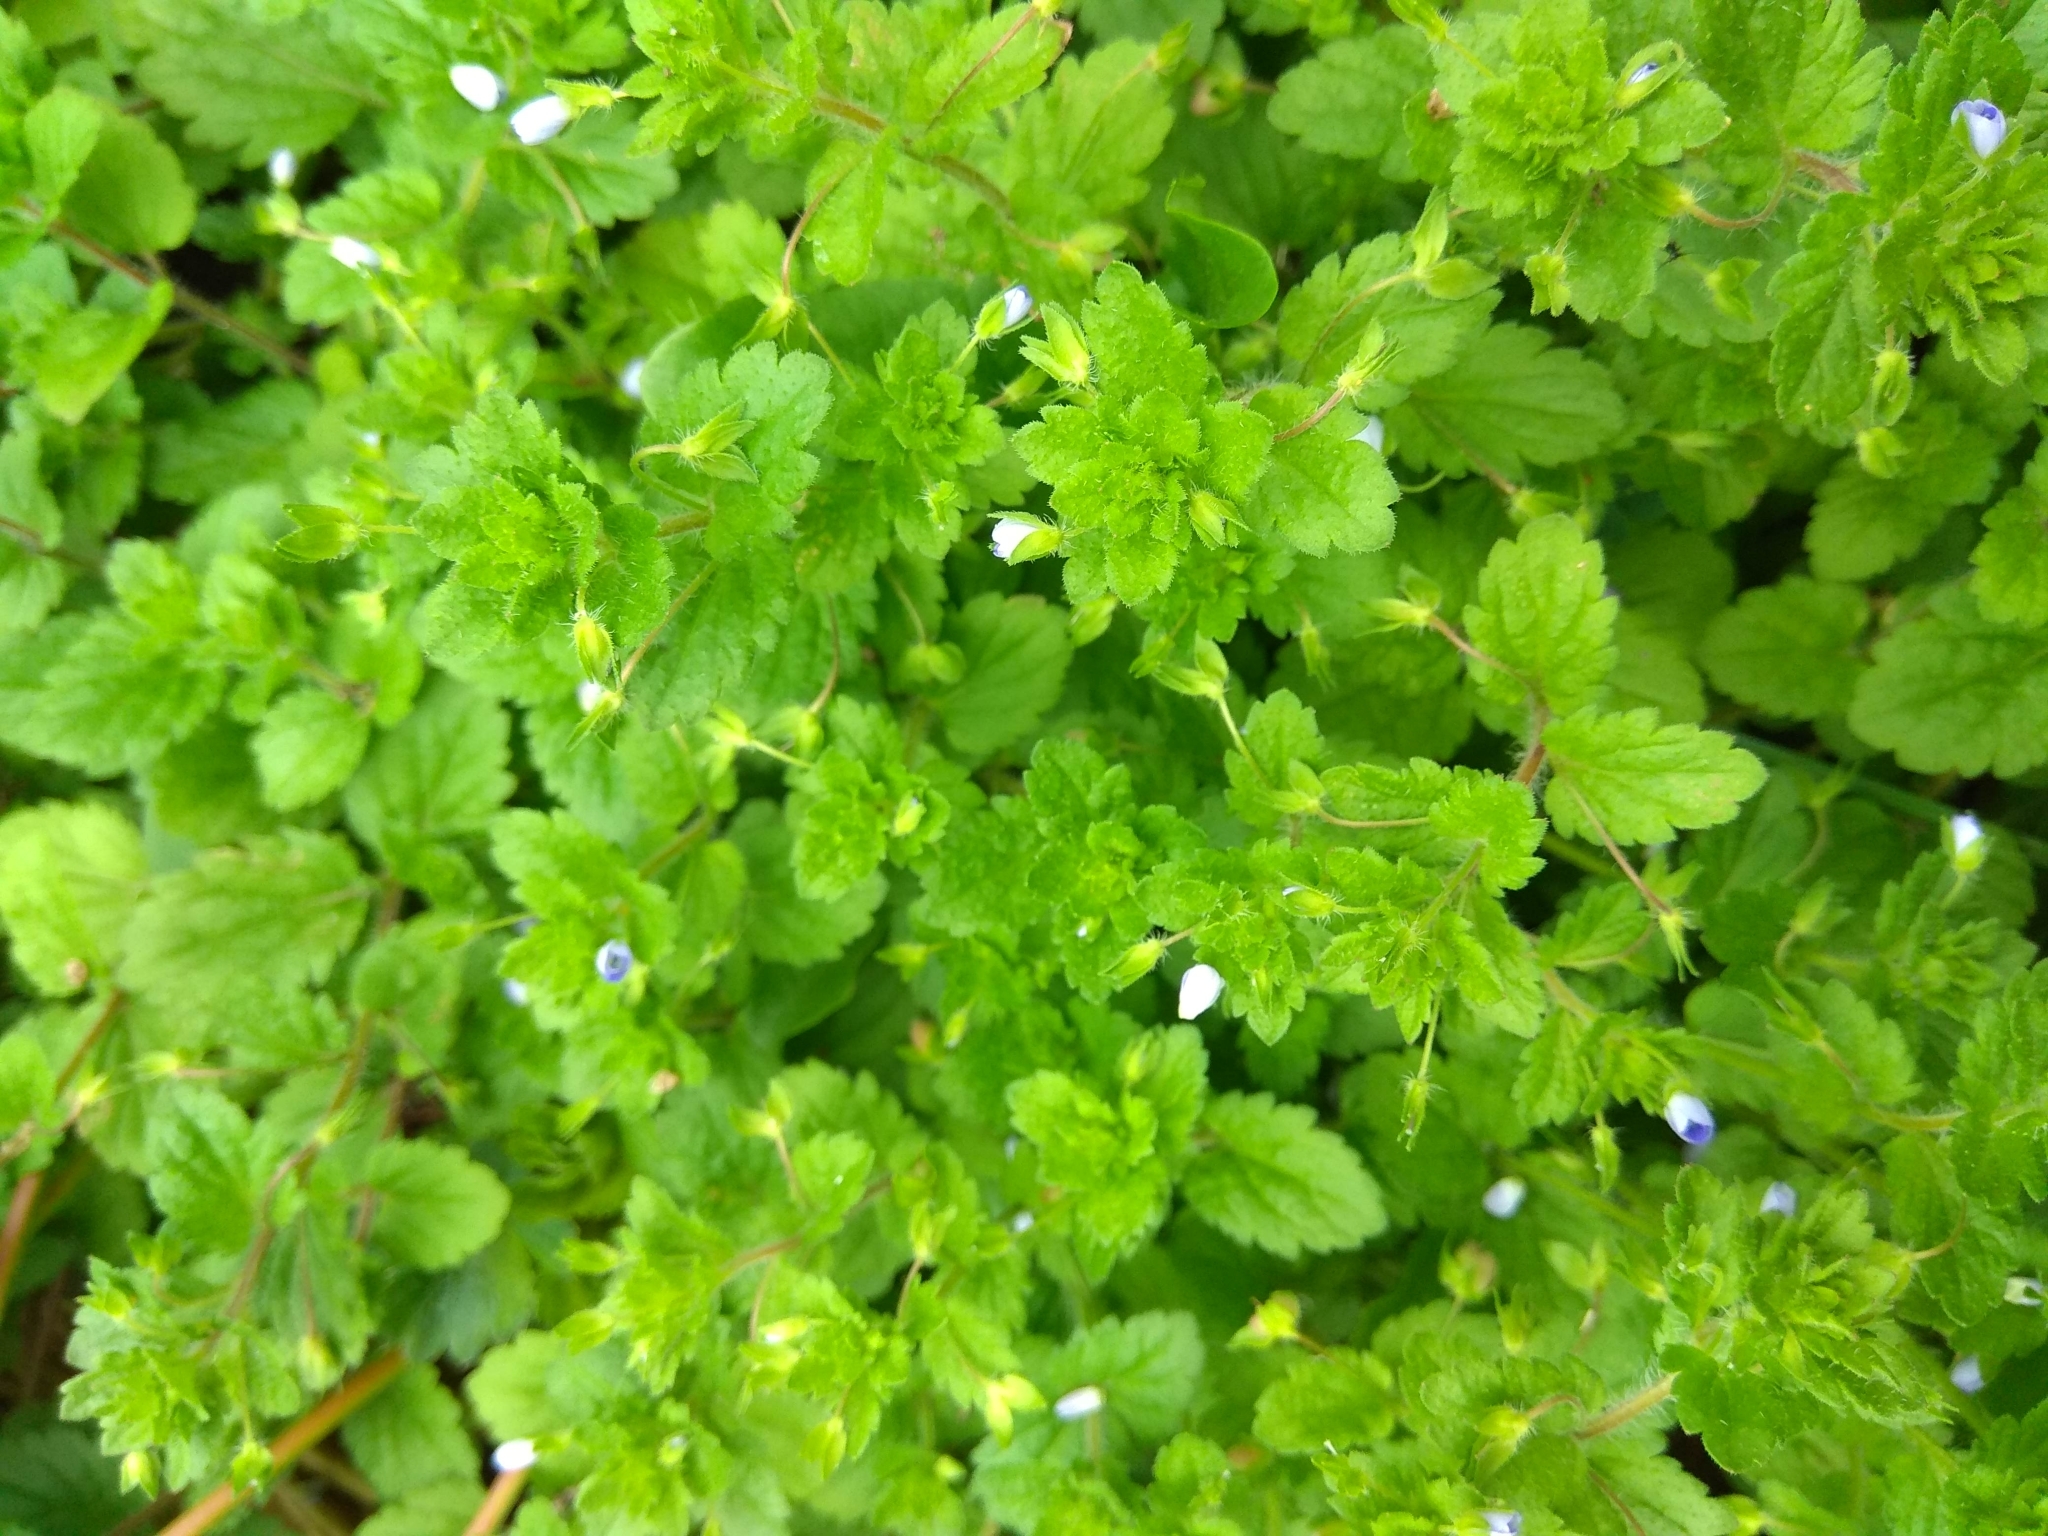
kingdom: Plantae
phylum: Tracheophyta
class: Magnoliopsida
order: Lamiales
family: Plantaginaceae
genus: Veronica
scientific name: Veronica chamaedrys
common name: Germander speedwell
